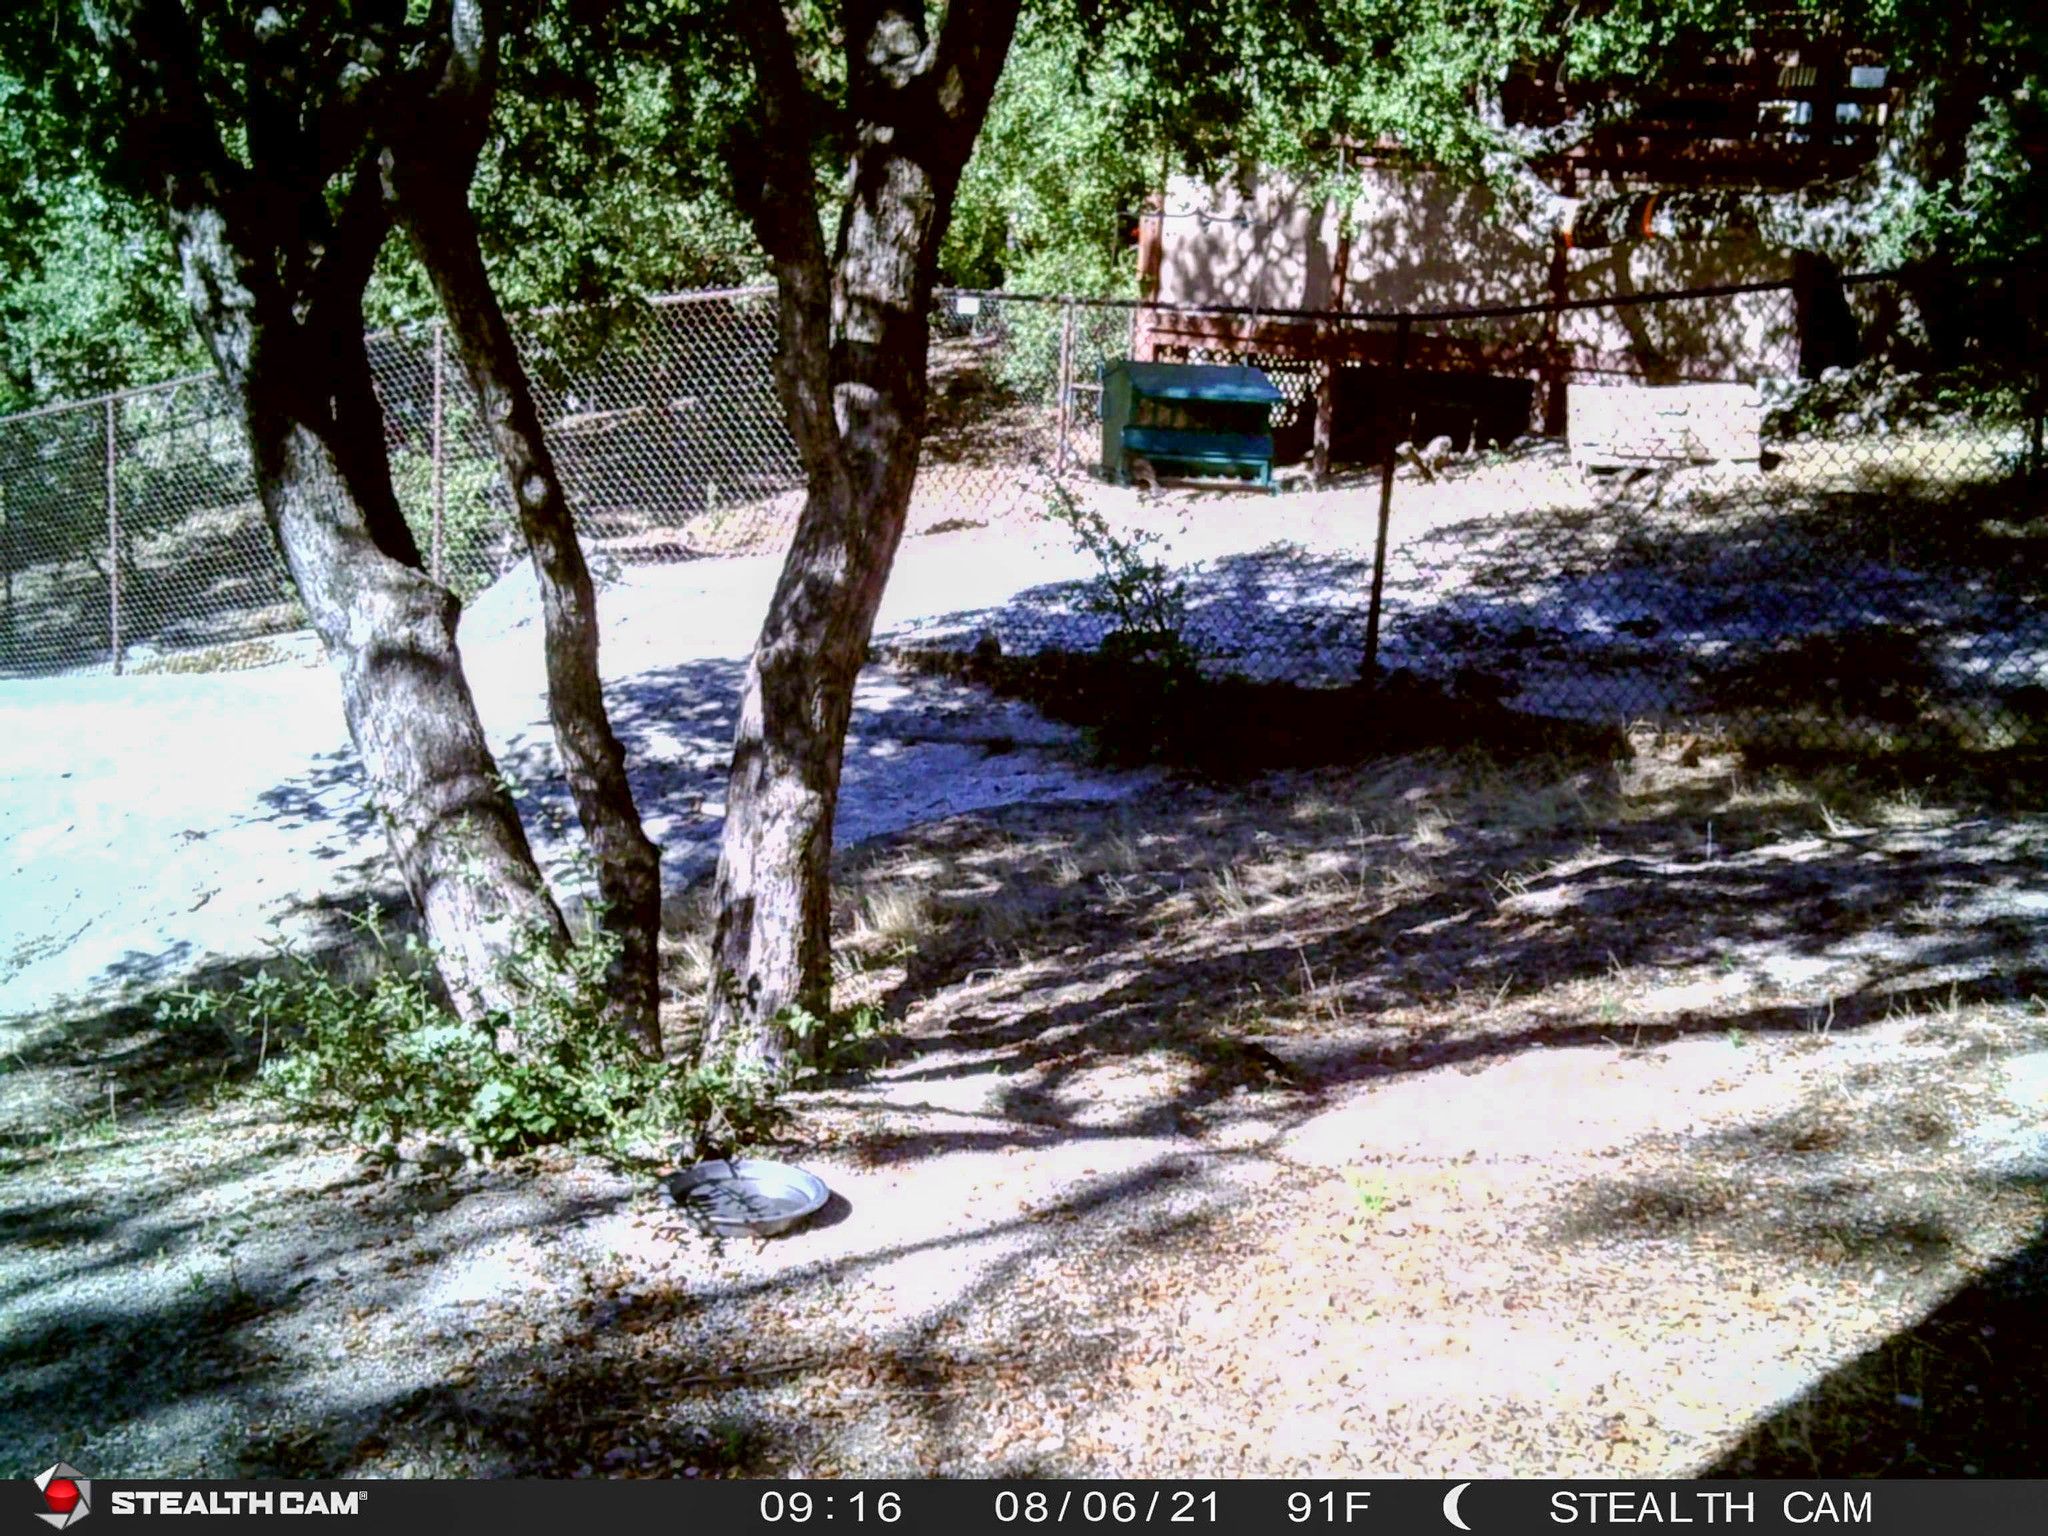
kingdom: Animalia
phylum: Chordata
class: Aves
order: Passeriformes
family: Cardinalidae
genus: Pheucticus
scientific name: Pheucticus melanocephalus
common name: Black-headed grosbeak
